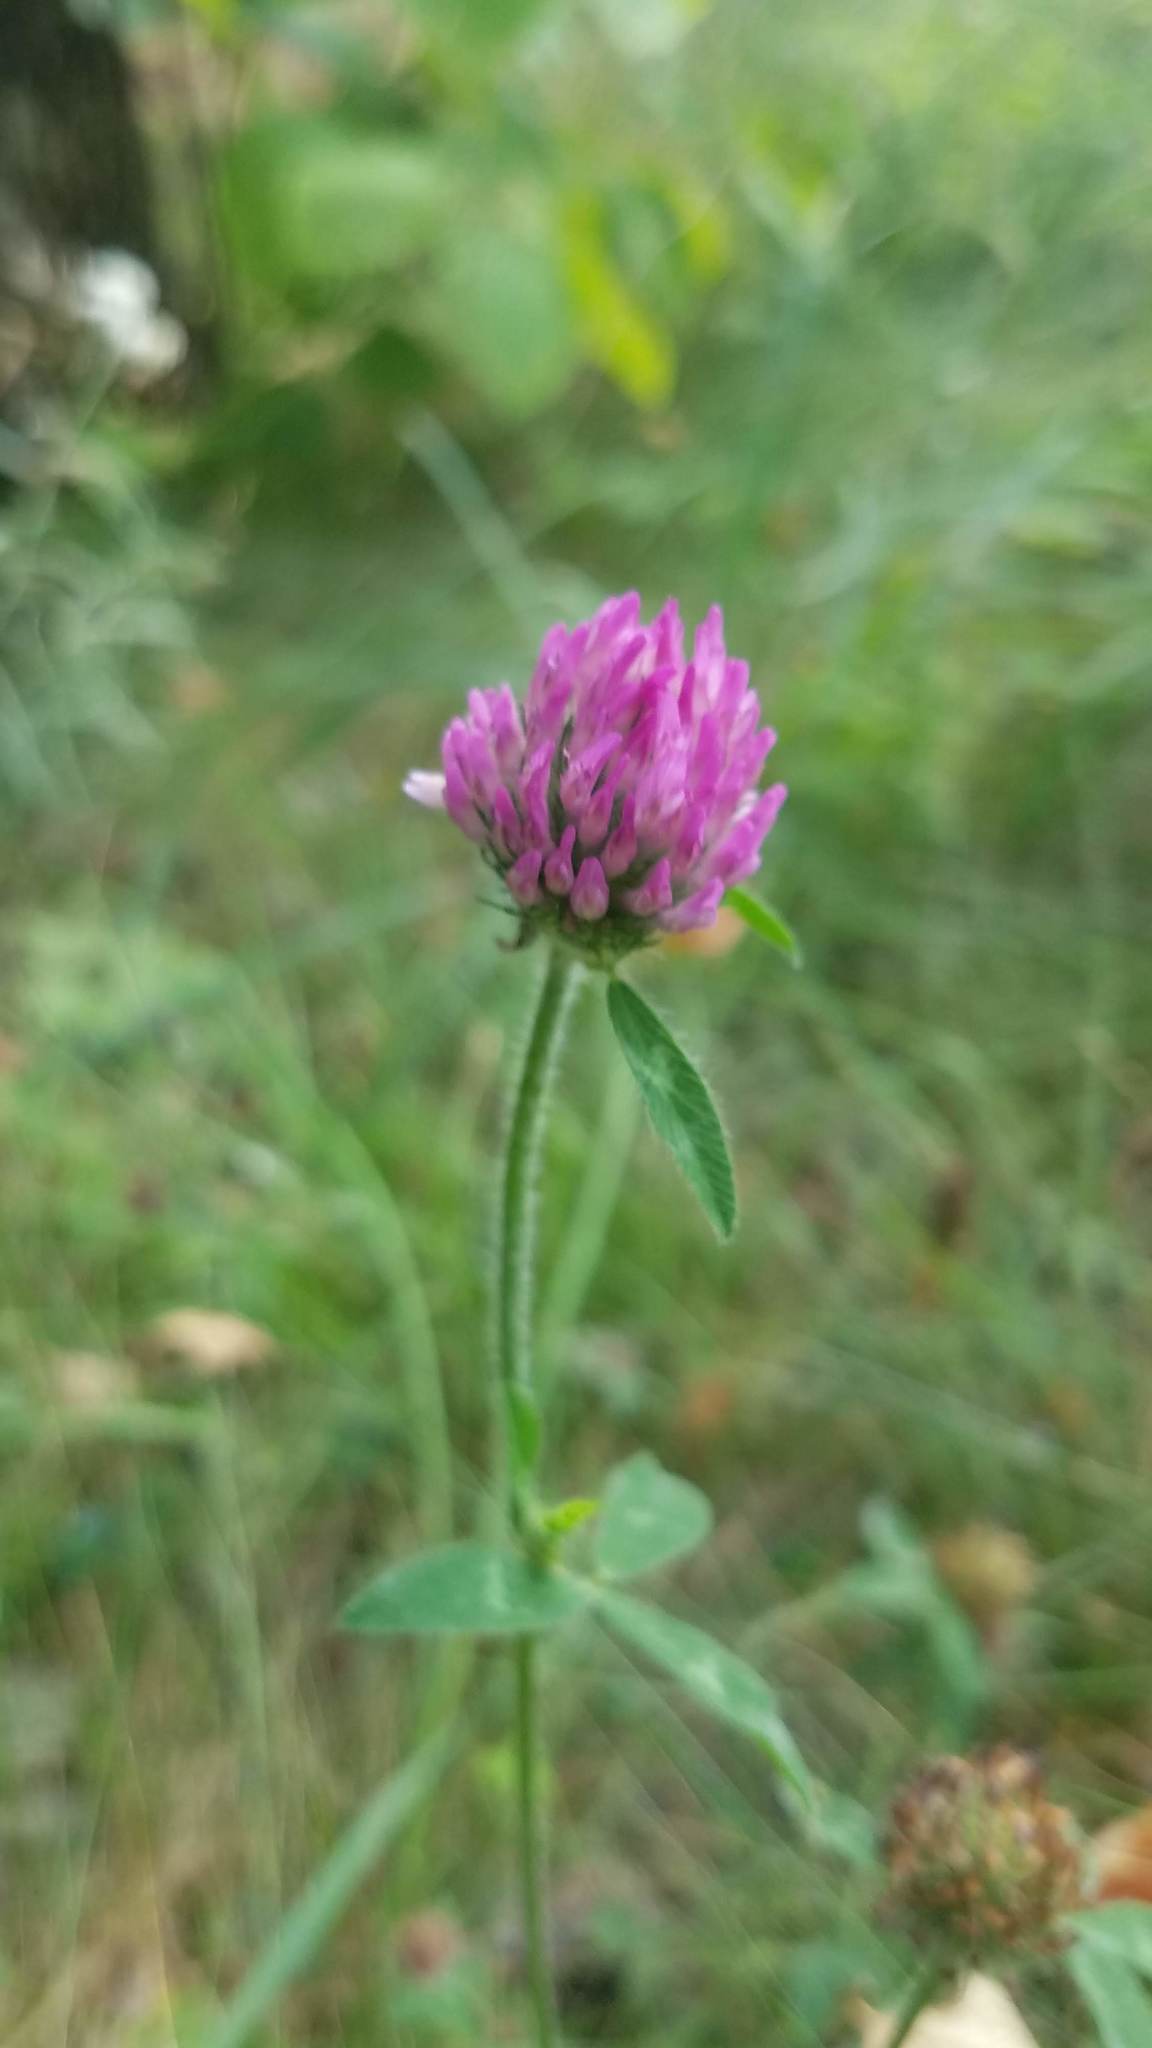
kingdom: Plantae
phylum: Tracheophyta
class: Magnoliopsida
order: Fabales
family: Fabaceae
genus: Trifolium
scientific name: Trifolium pratense
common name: Red clover
